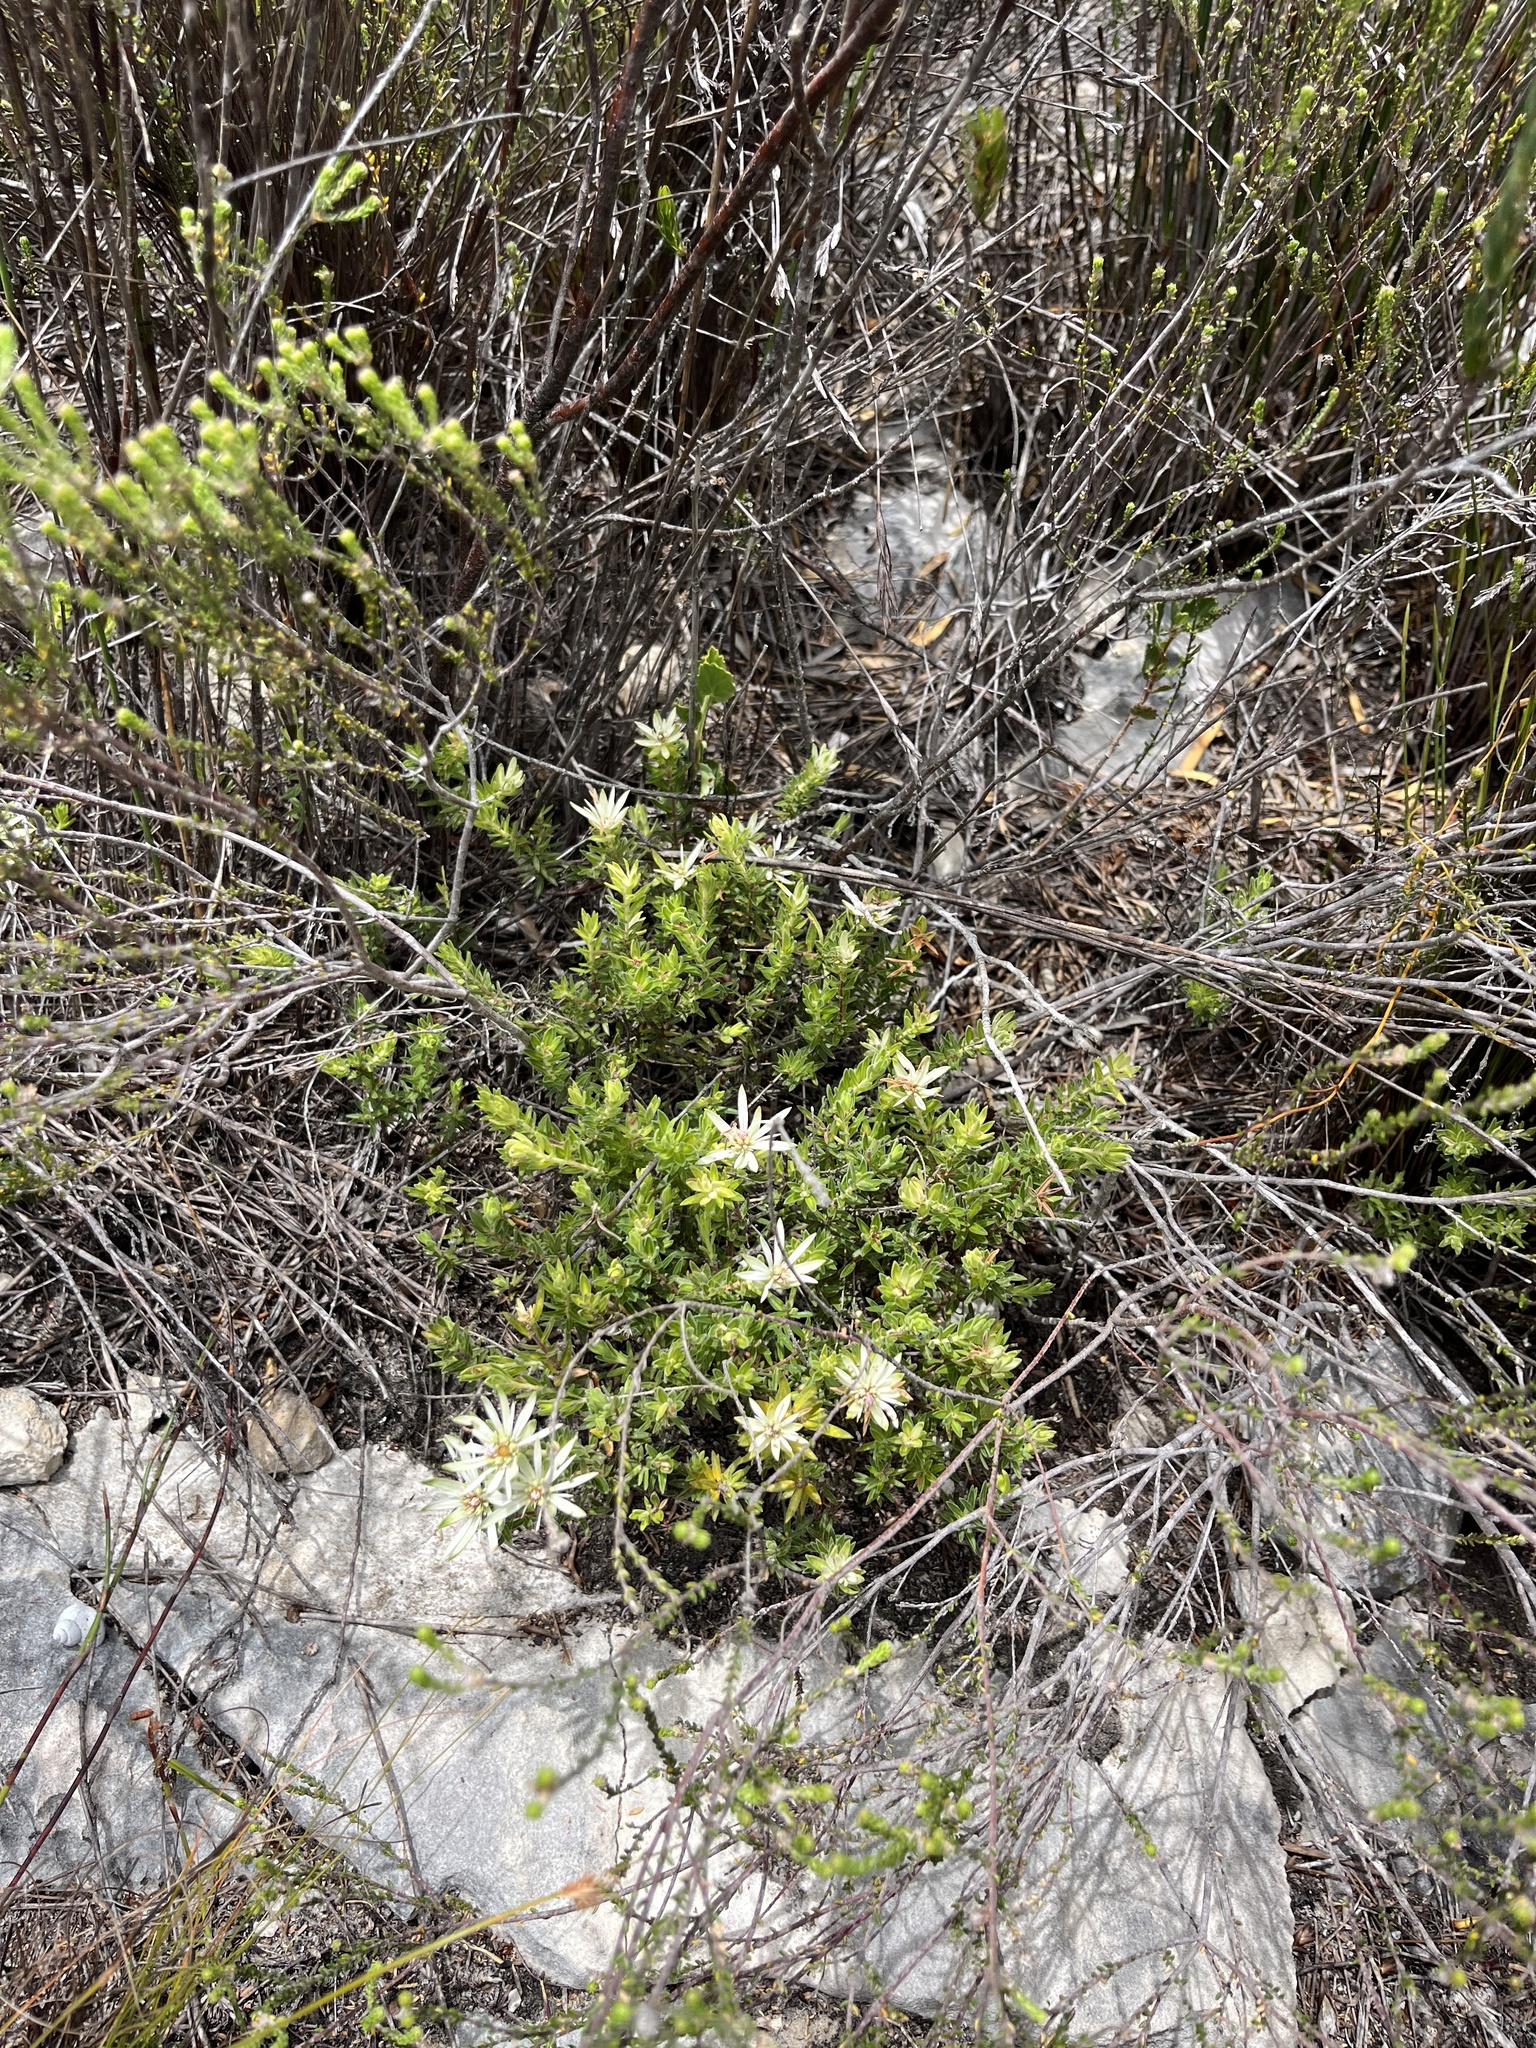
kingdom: Plantae
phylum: Tracheophyta
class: Magnoliopsida
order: Sapindales
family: Rutaceae
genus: Euchaetis
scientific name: Euchaetis longibracteata
